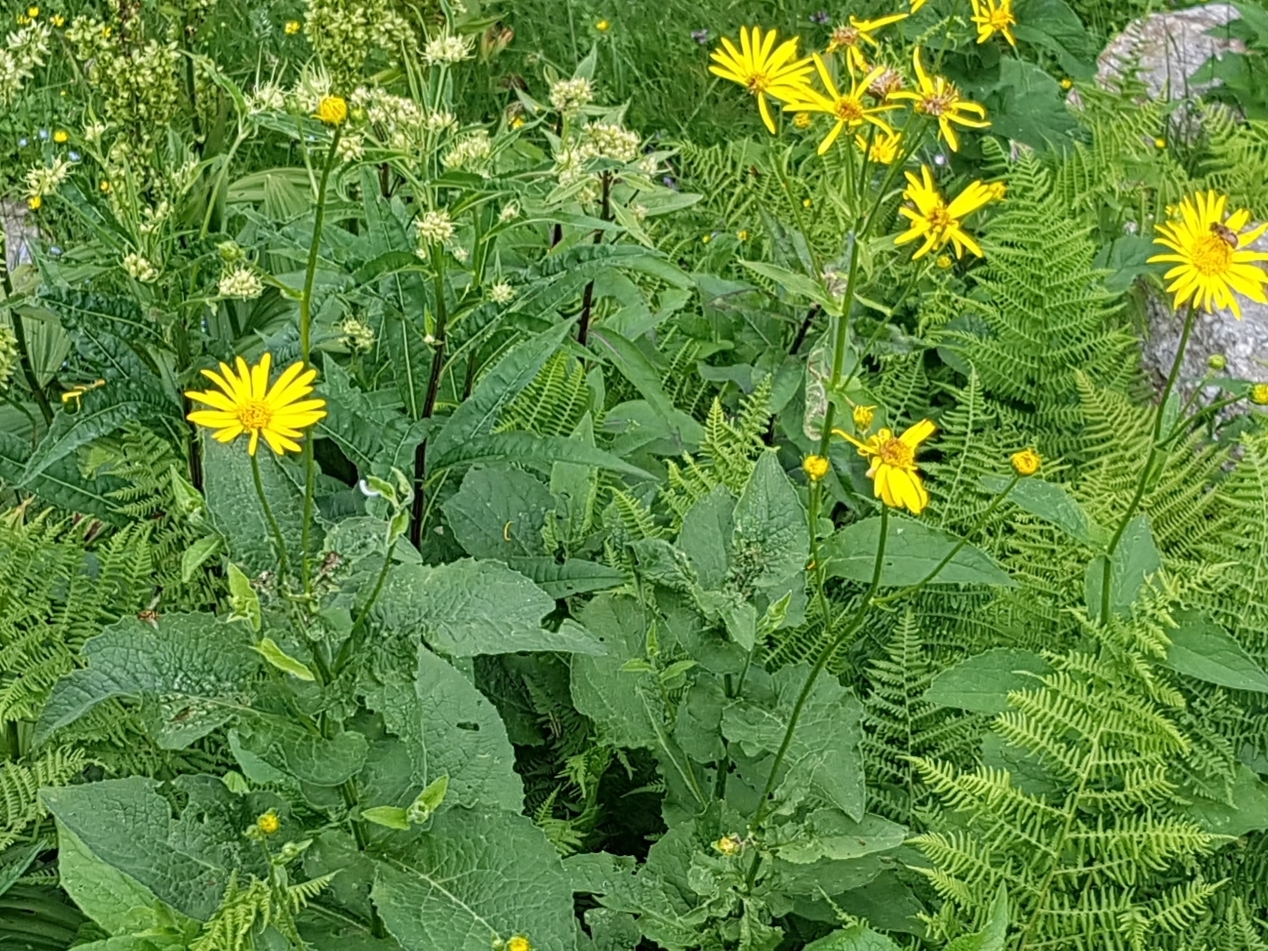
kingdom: Plantae
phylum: Tracheophyta
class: Magnoliopsida
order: Asterales
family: Asteraceae
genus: Doronicum
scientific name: Doronicum austriacum
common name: Austrian leopard's-bane
